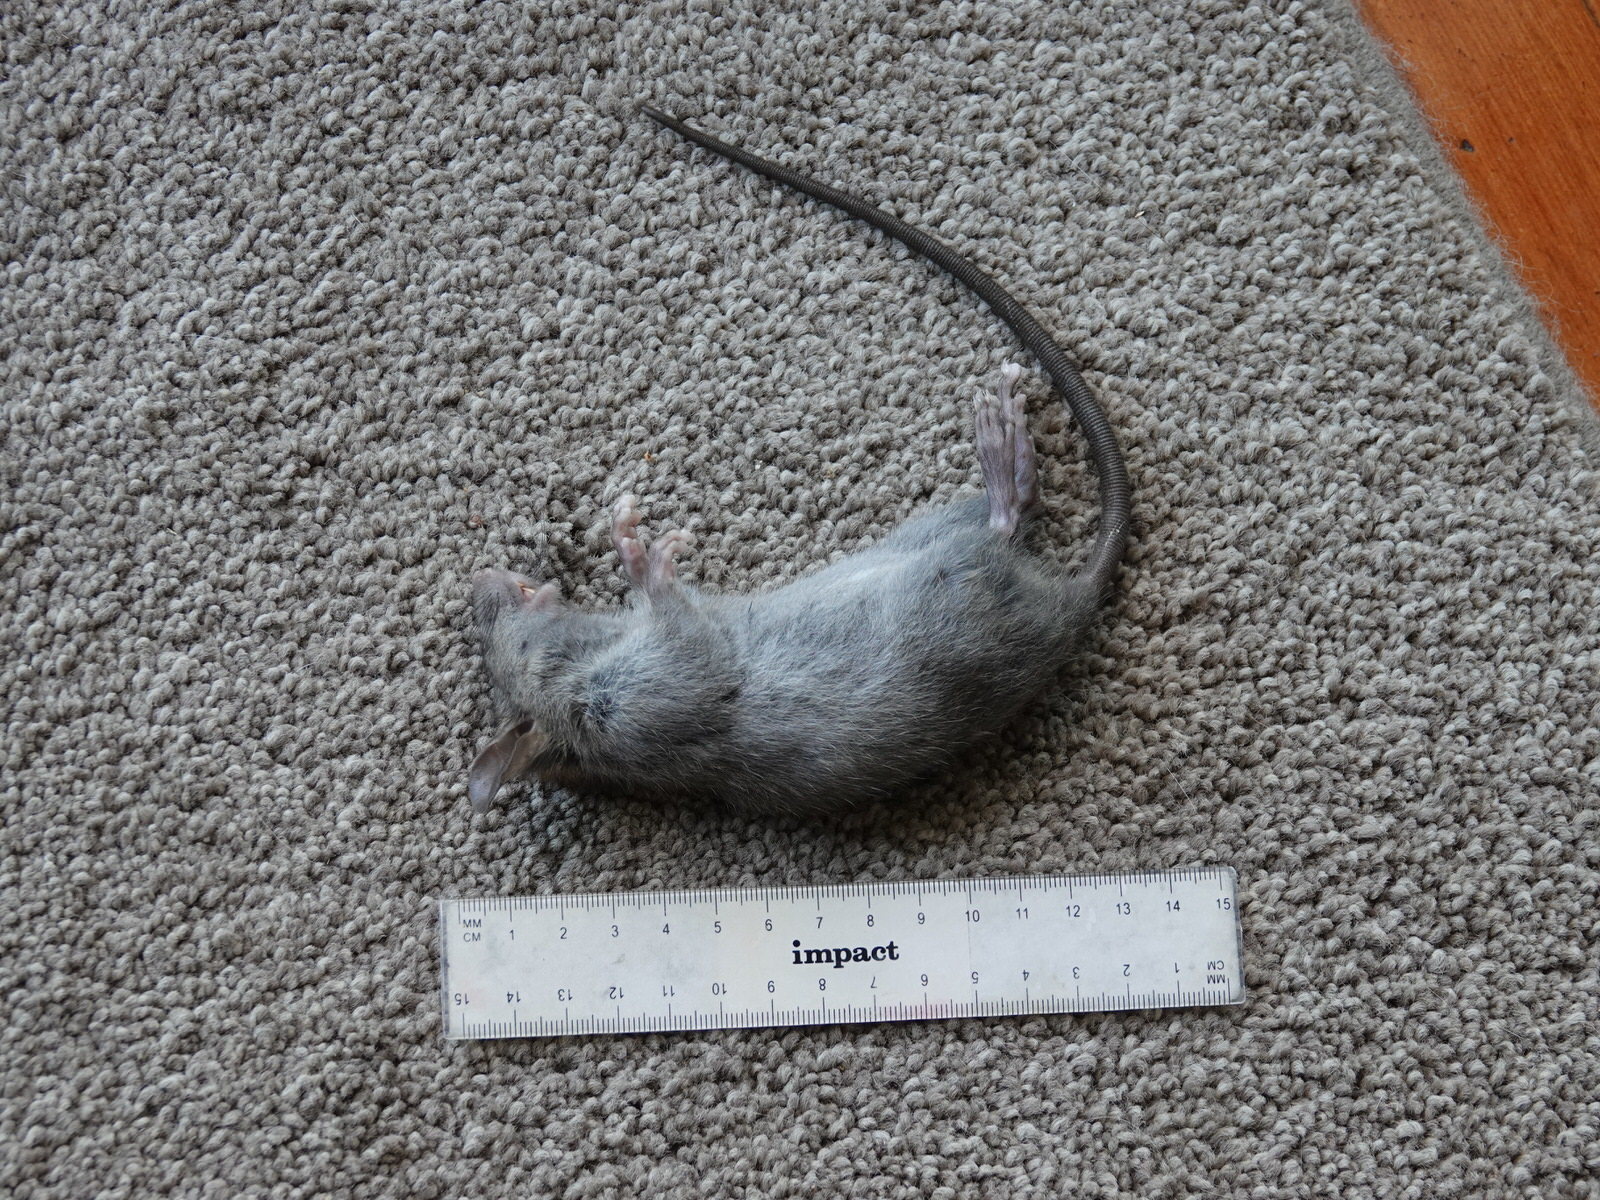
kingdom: Animalia
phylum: Chordata
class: Mammalia
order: Rodentia
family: Muridae
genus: Rattus
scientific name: Rattus rattus
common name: Black rat
